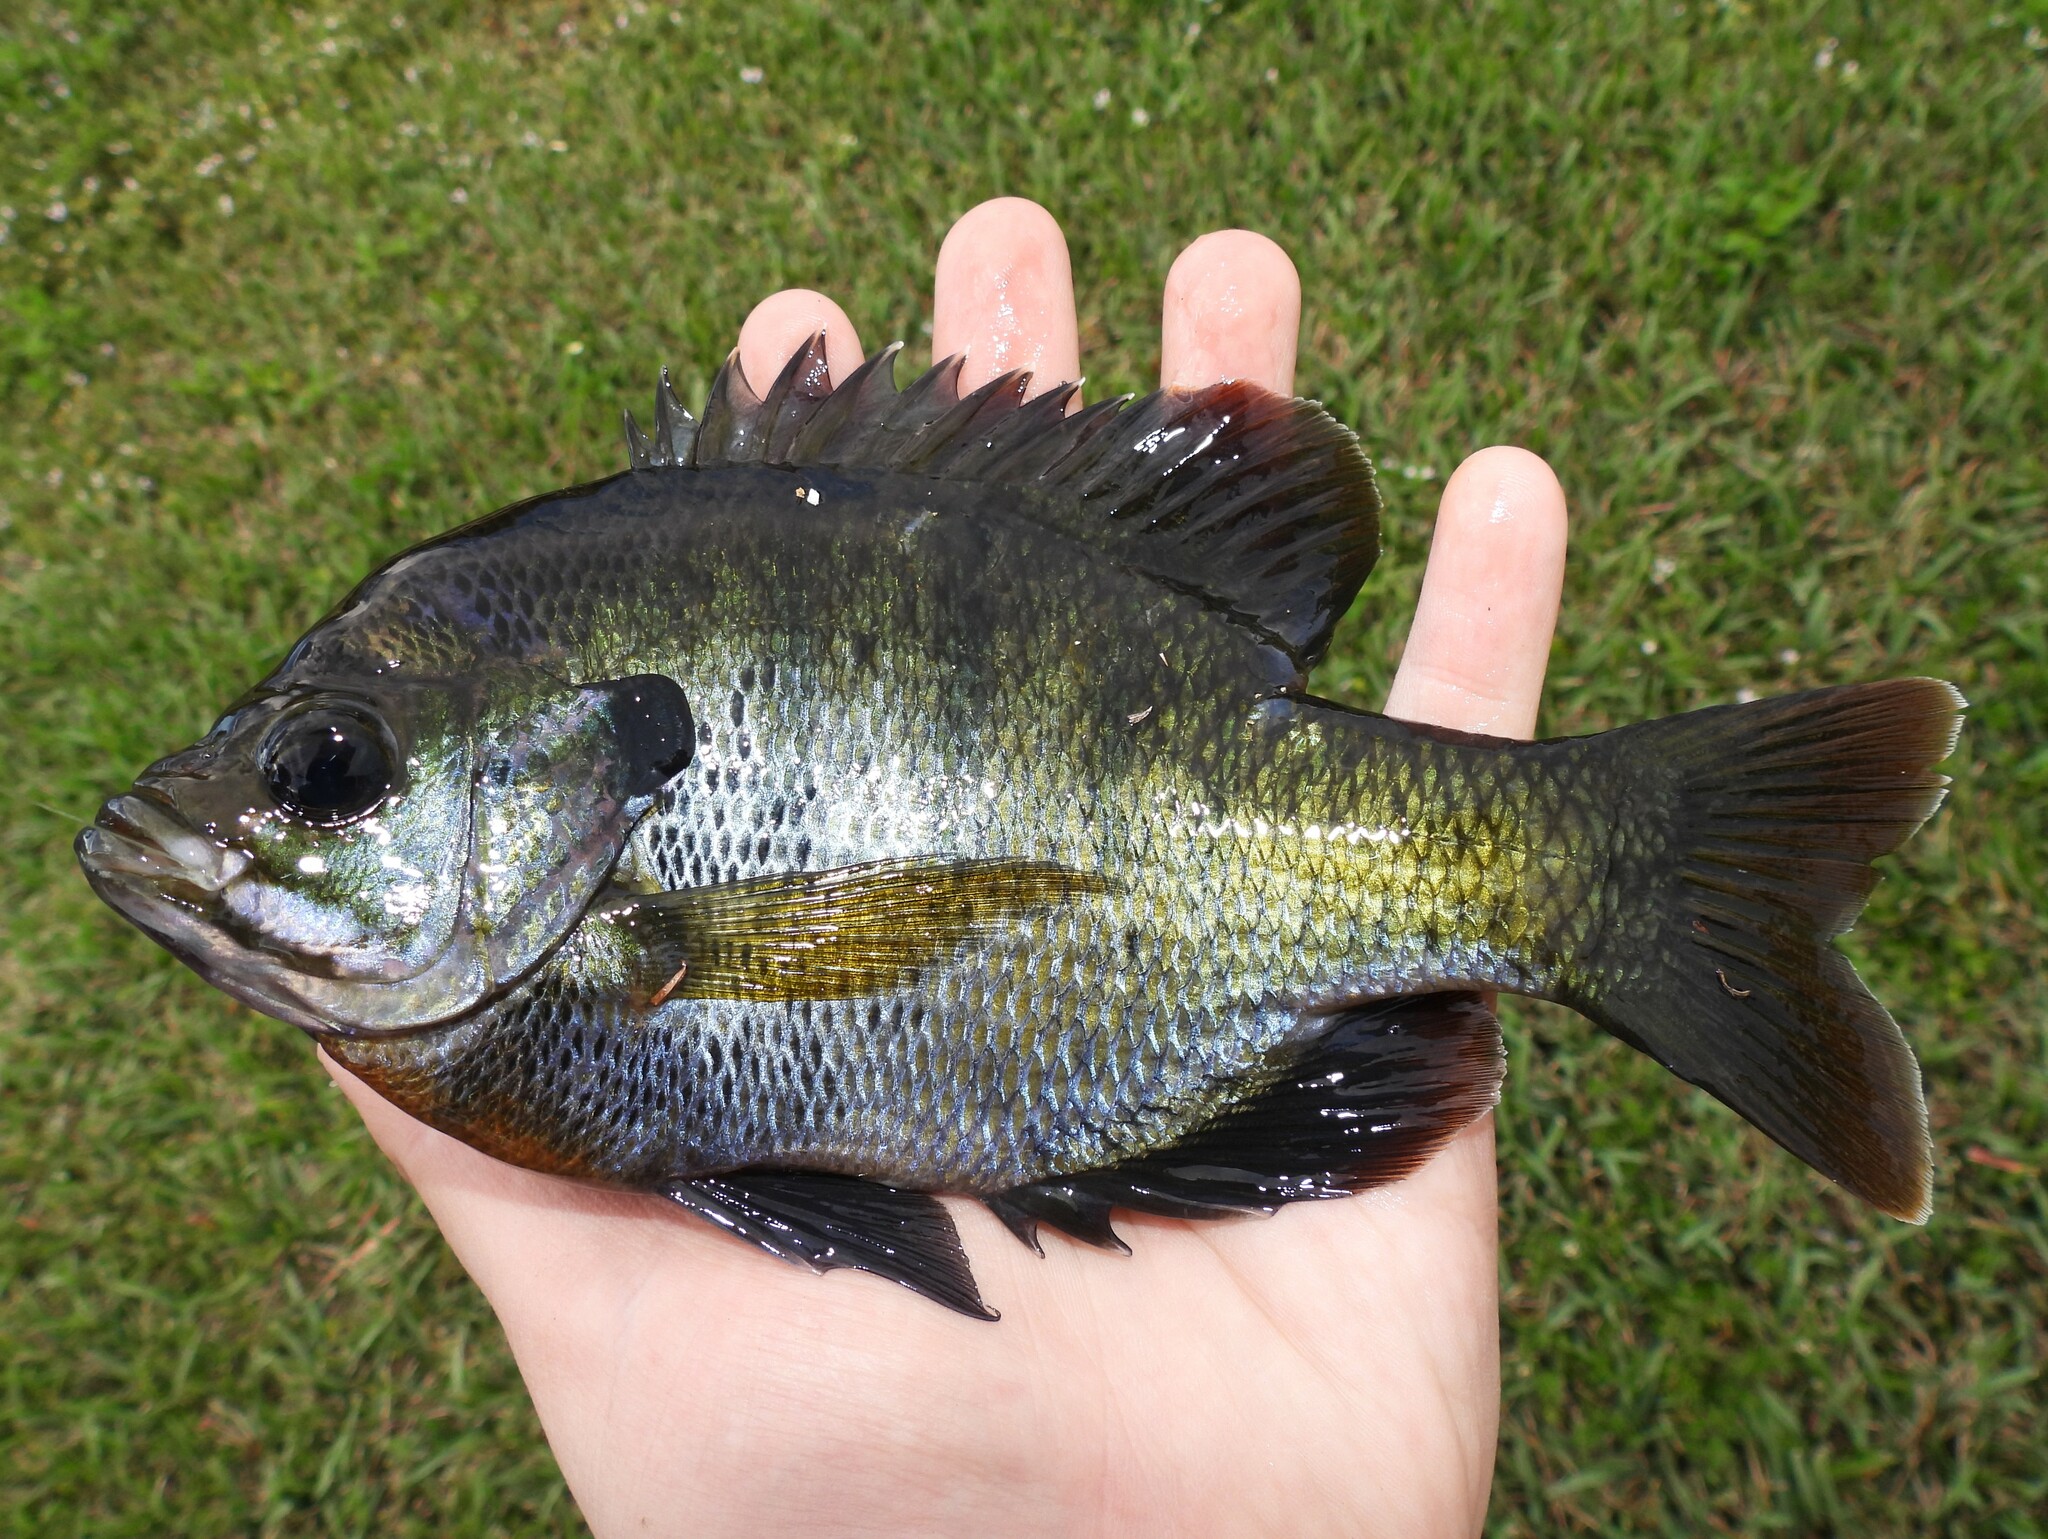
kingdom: Animalia
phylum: Chordata
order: Perciformes
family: Centrarchidae
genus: Lepomis
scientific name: Lepomis macrochirus
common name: Bluegill
